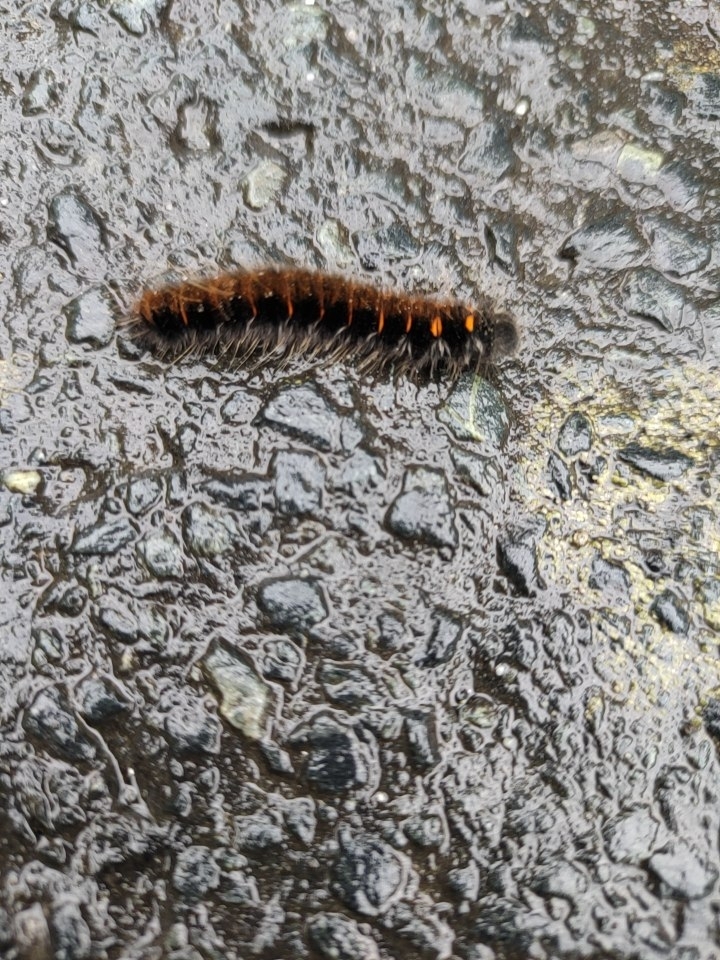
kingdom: Animalia
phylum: Arthropoda
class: Insecta
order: Lepidoptera
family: Lasiocampidae
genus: Macrothylacia
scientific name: Macrothylacia rubi
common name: Fox moth
